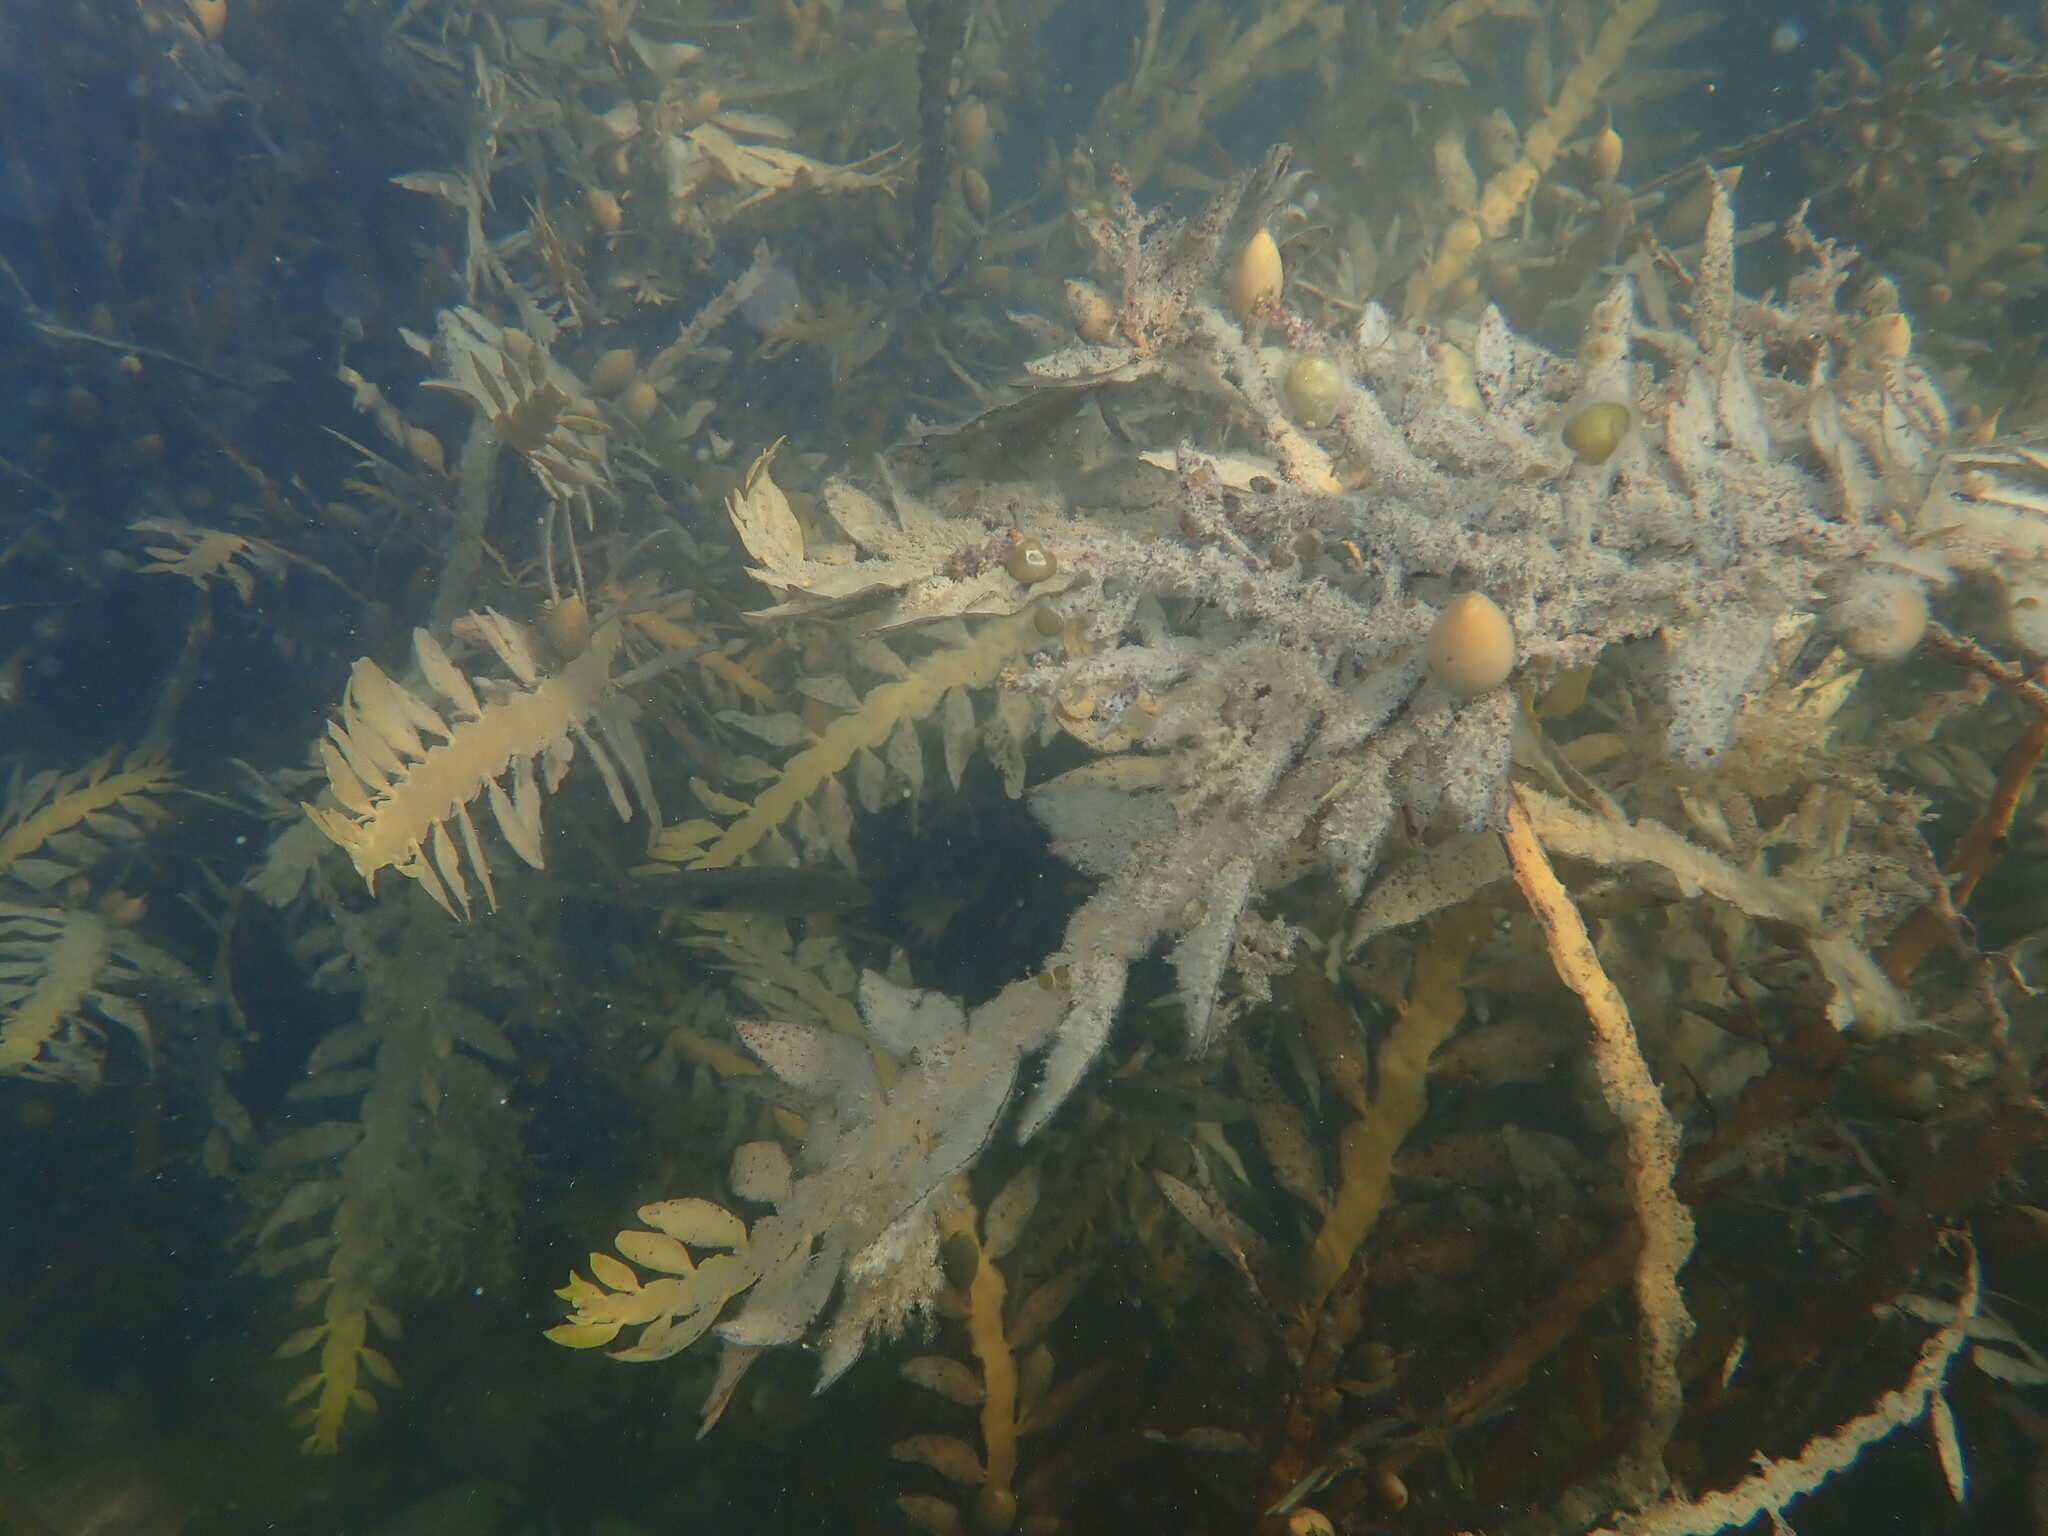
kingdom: Chromista
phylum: Ochrophyta
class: Phaeophyceae
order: Fucales
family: Sargassaceae
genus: Carpophyllum
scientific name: Carpophyllum maschalocarpum
